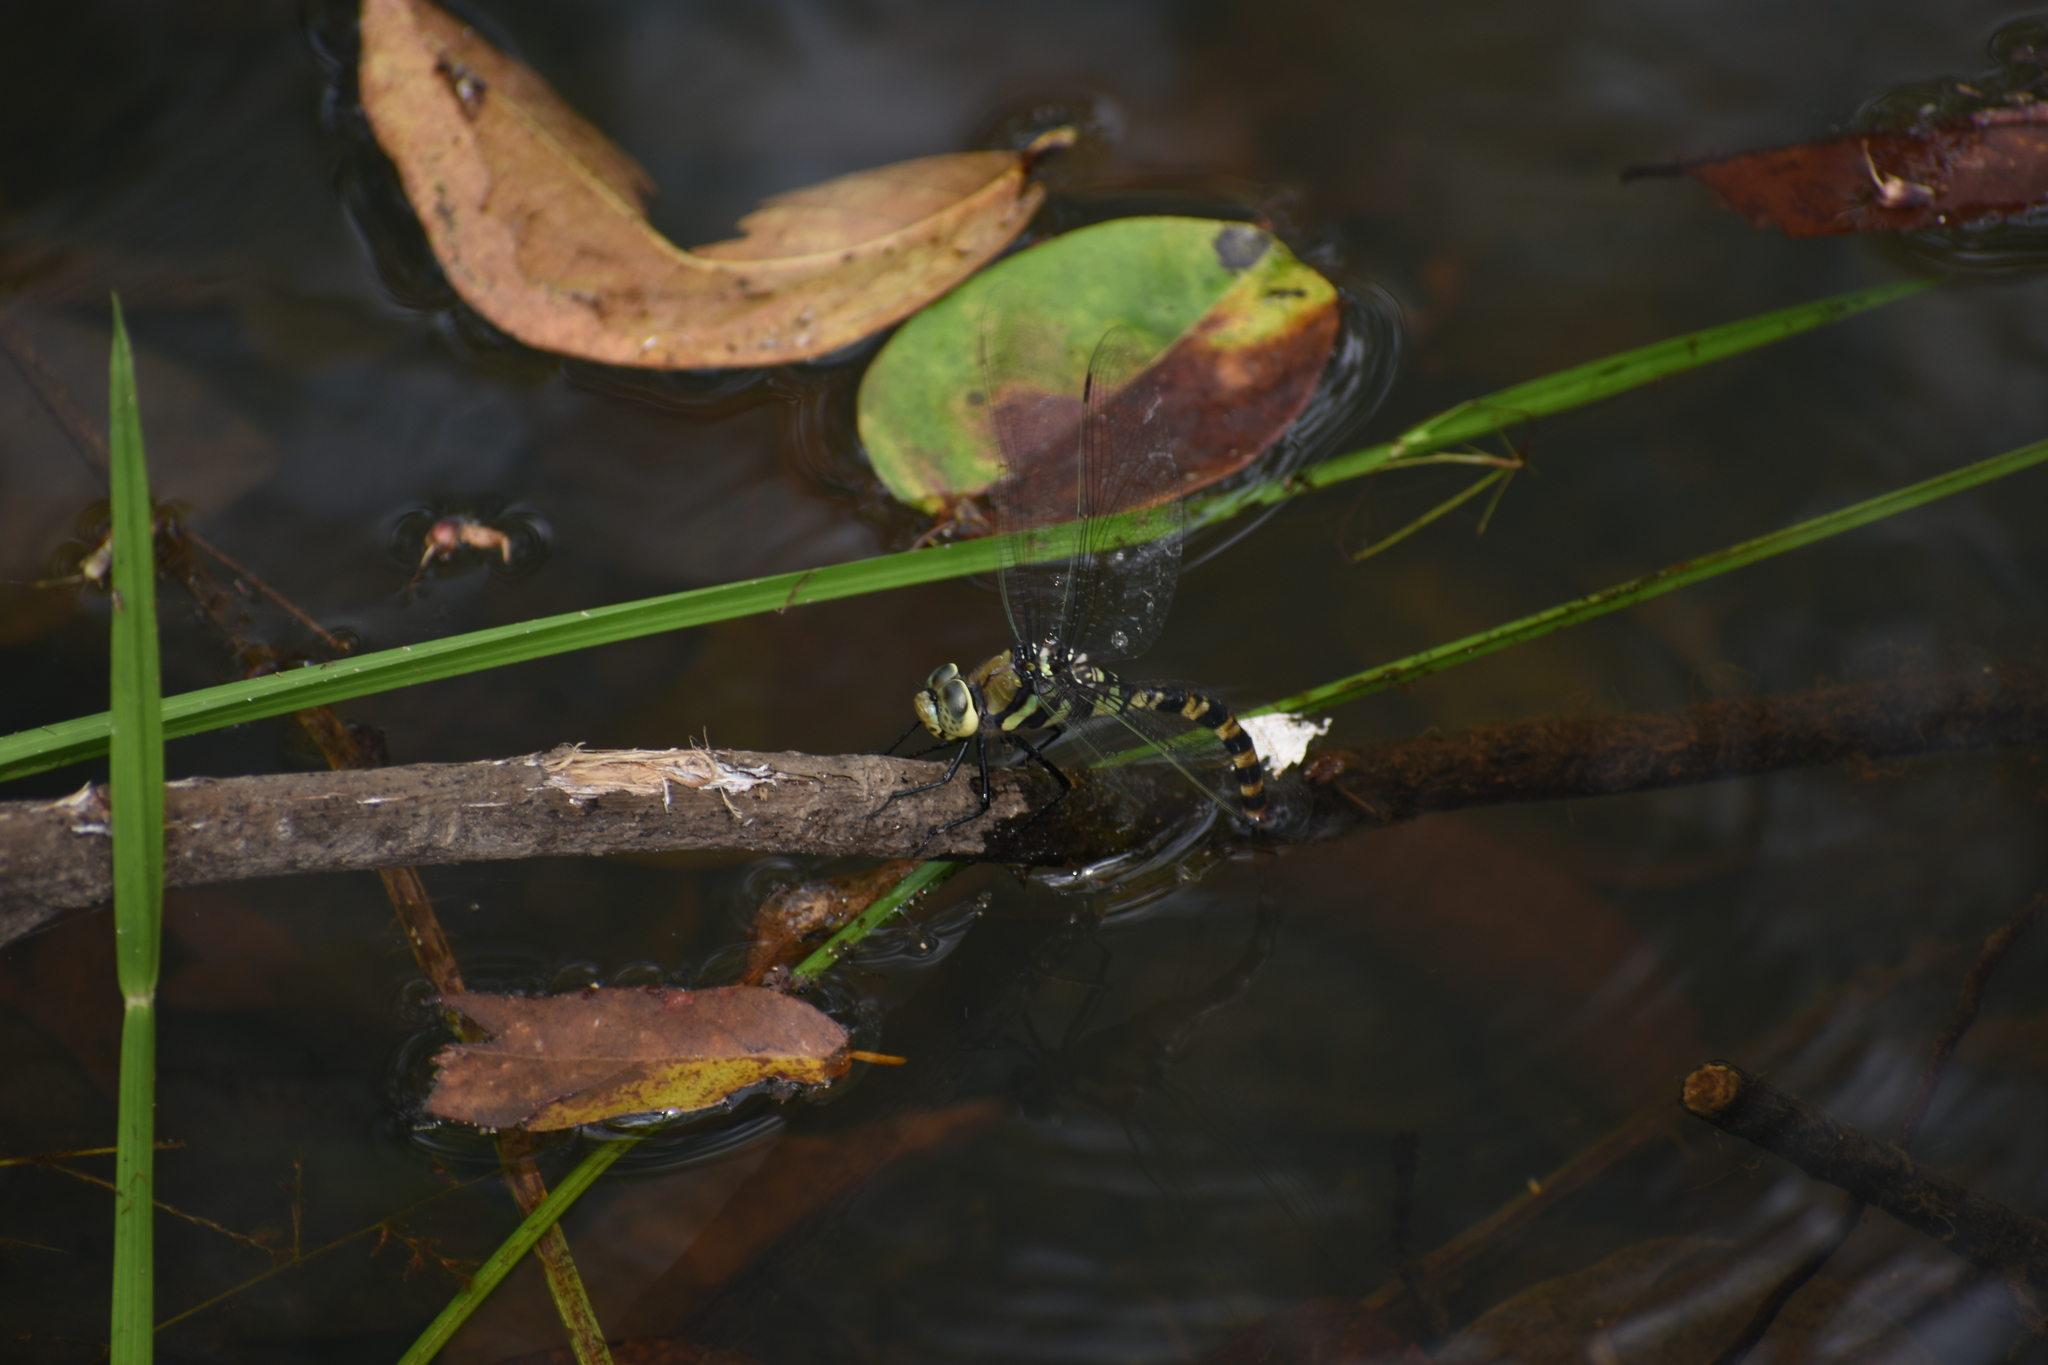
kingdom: Animalia
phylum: Arthropoda
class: Insecta
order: Odonata
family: Aeshnidae
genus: Anax
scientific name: Anax immaculifrons
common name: Magnificent emperor
